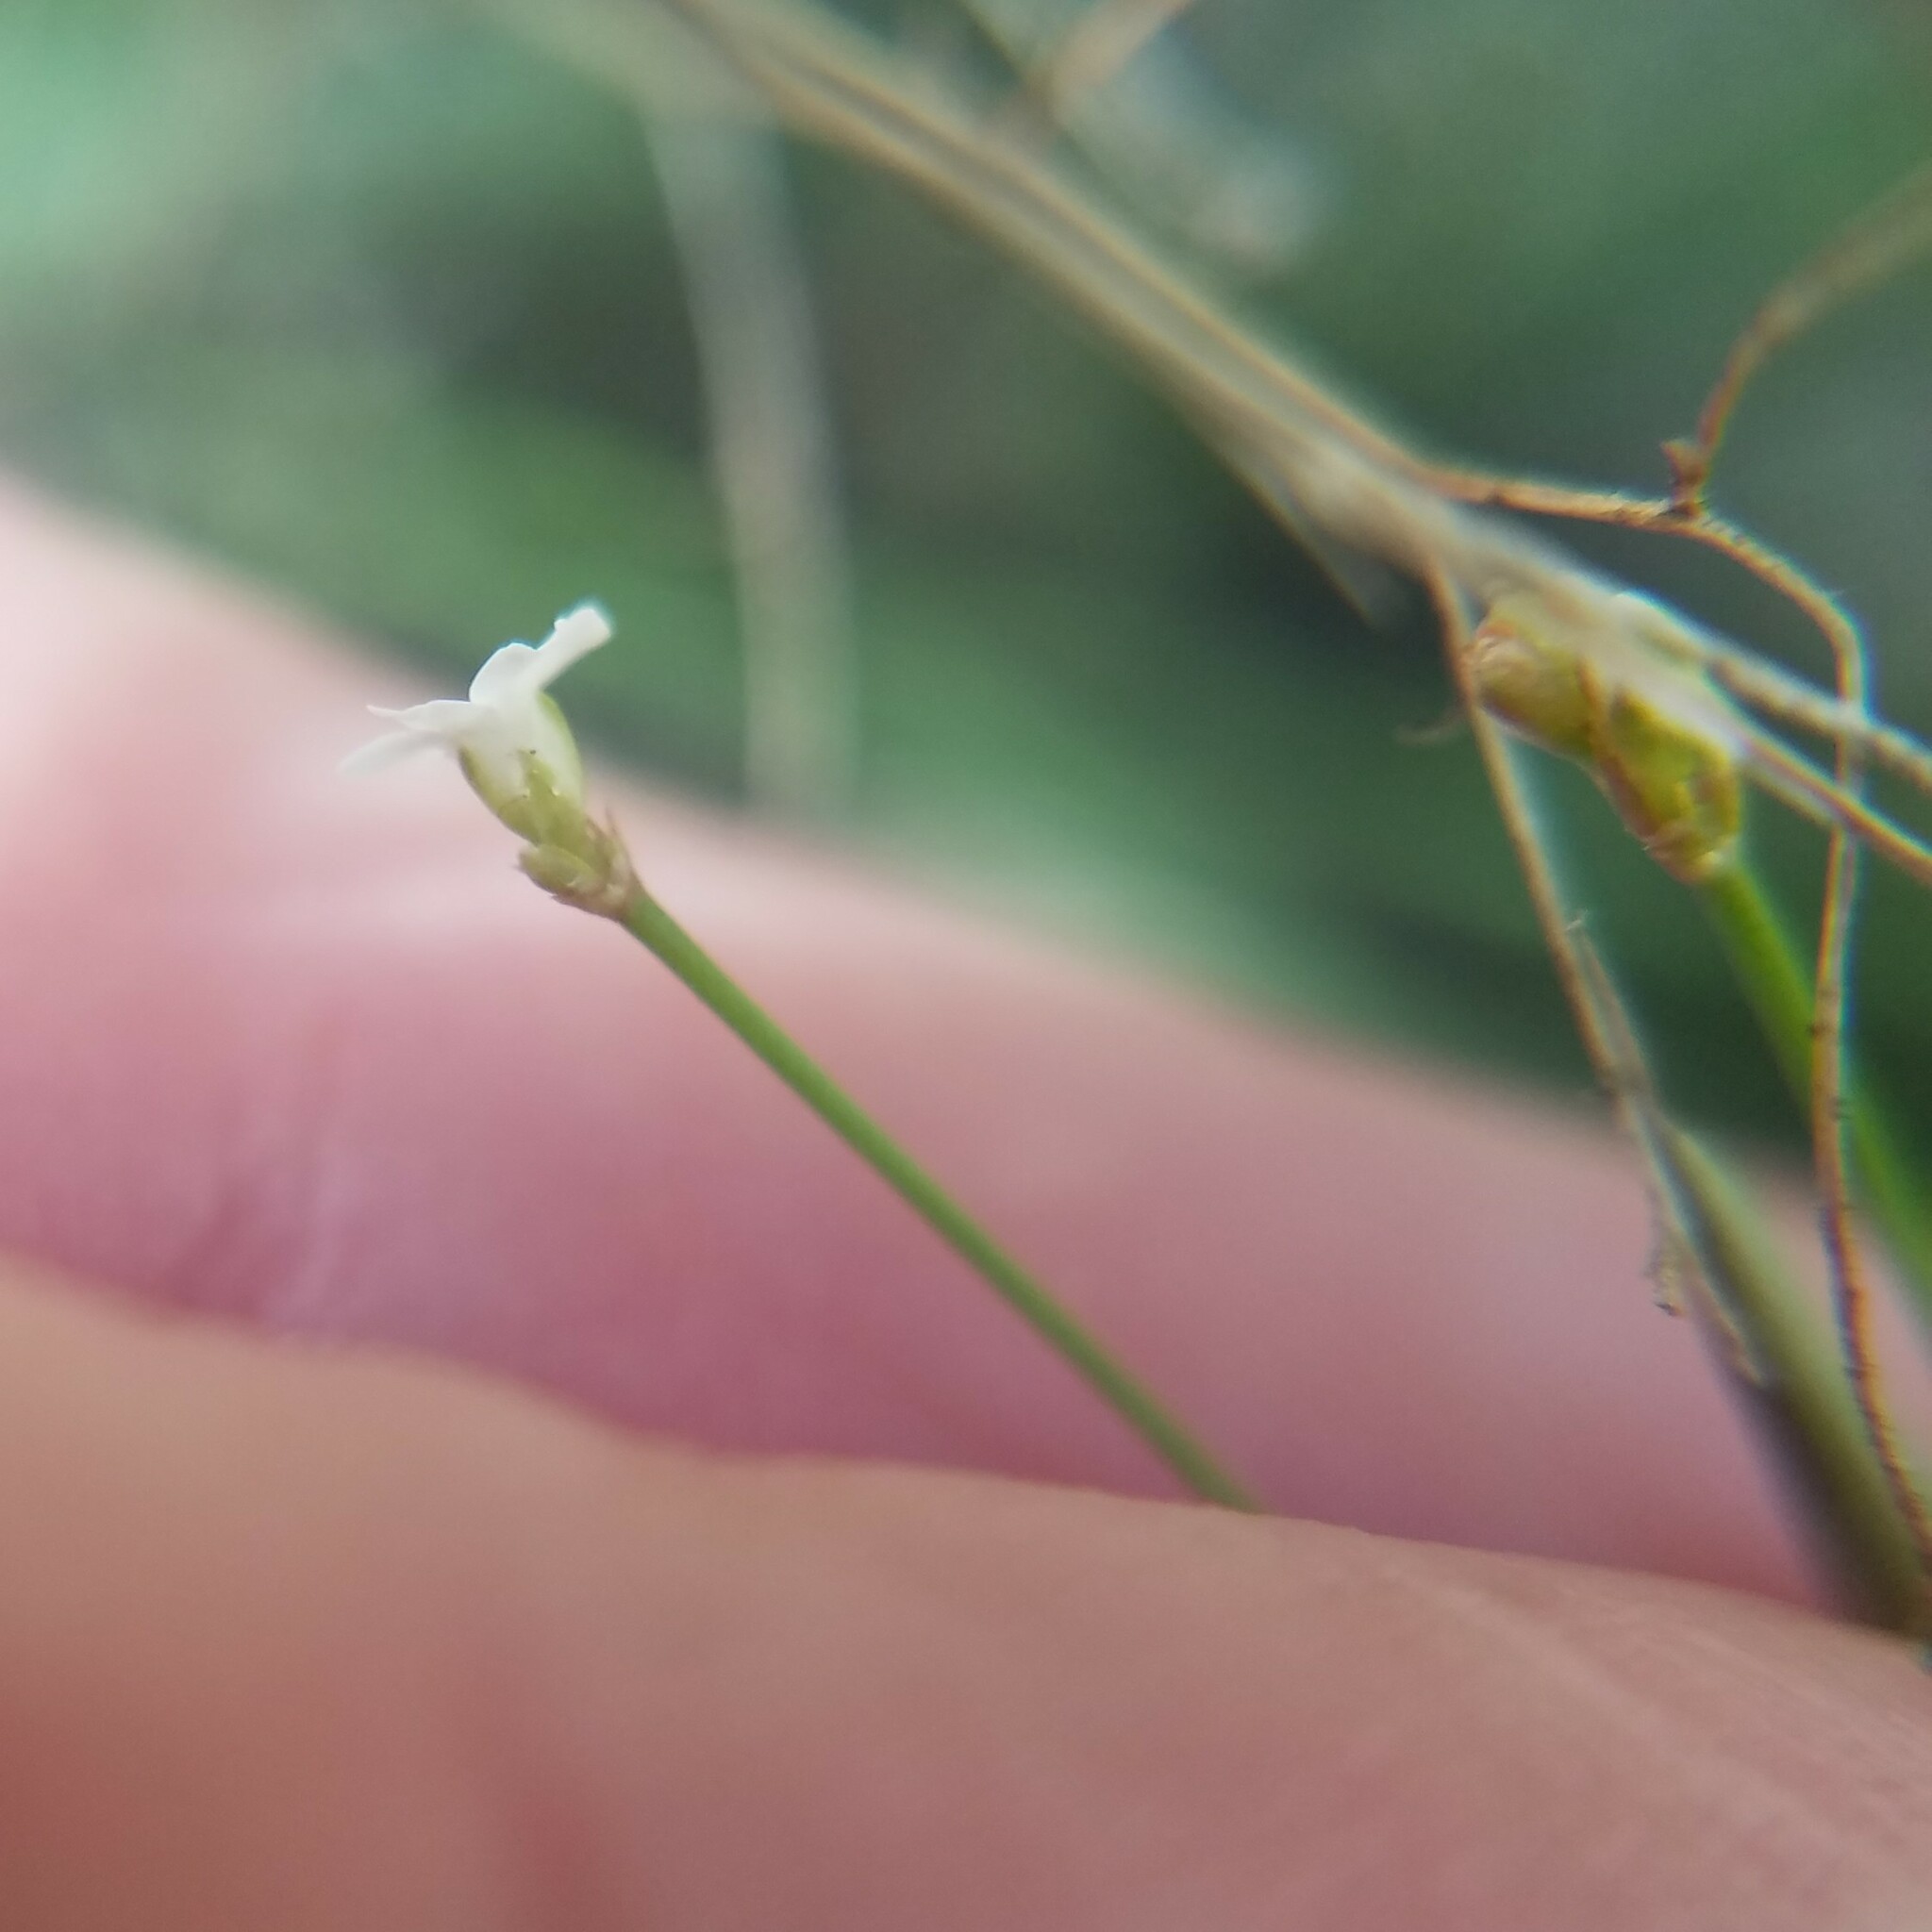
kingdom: Plantae
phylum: Tracheophyta
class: Magnoliopsida
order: Caryophyllales
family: Caryophyllaceae
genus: Stipulicida
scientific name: Stipulicida setacea
